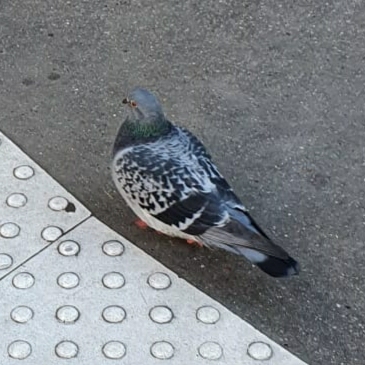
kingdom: Animalia
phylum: Chordata
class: Aves
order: Columbiformes
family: Columbidae
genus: Columba
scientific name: Columba livia
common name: Rock pigeon
